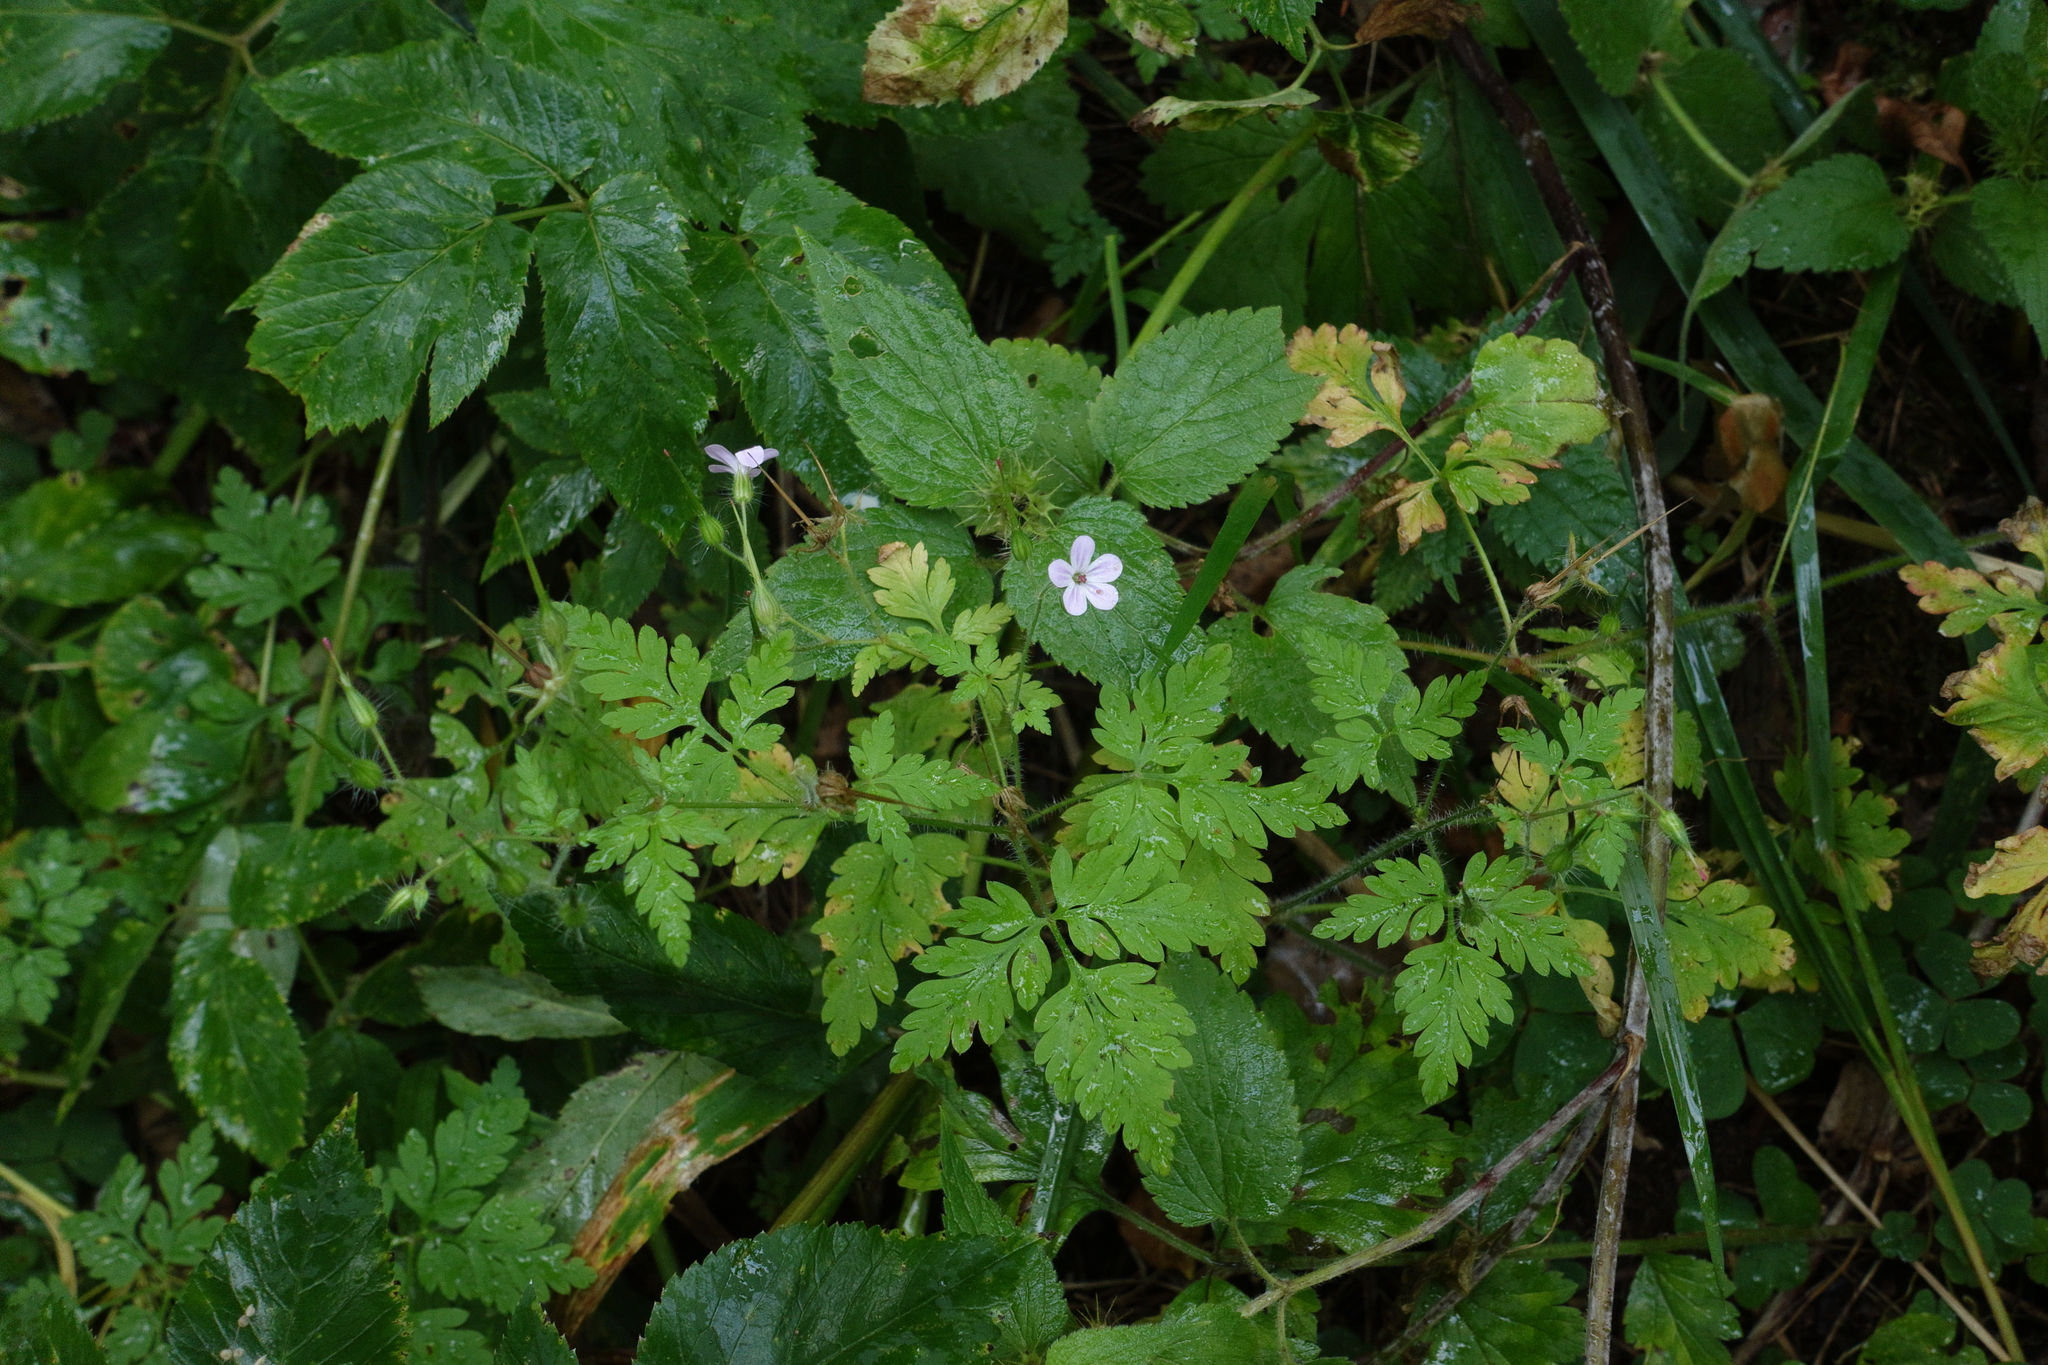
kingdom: Plantae
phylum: Tracheophyta
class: Magnoliopsida
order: Geraniales
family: Geraniaceae
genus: Geranium
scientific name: Geranium robertianum
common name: Herb-robert
